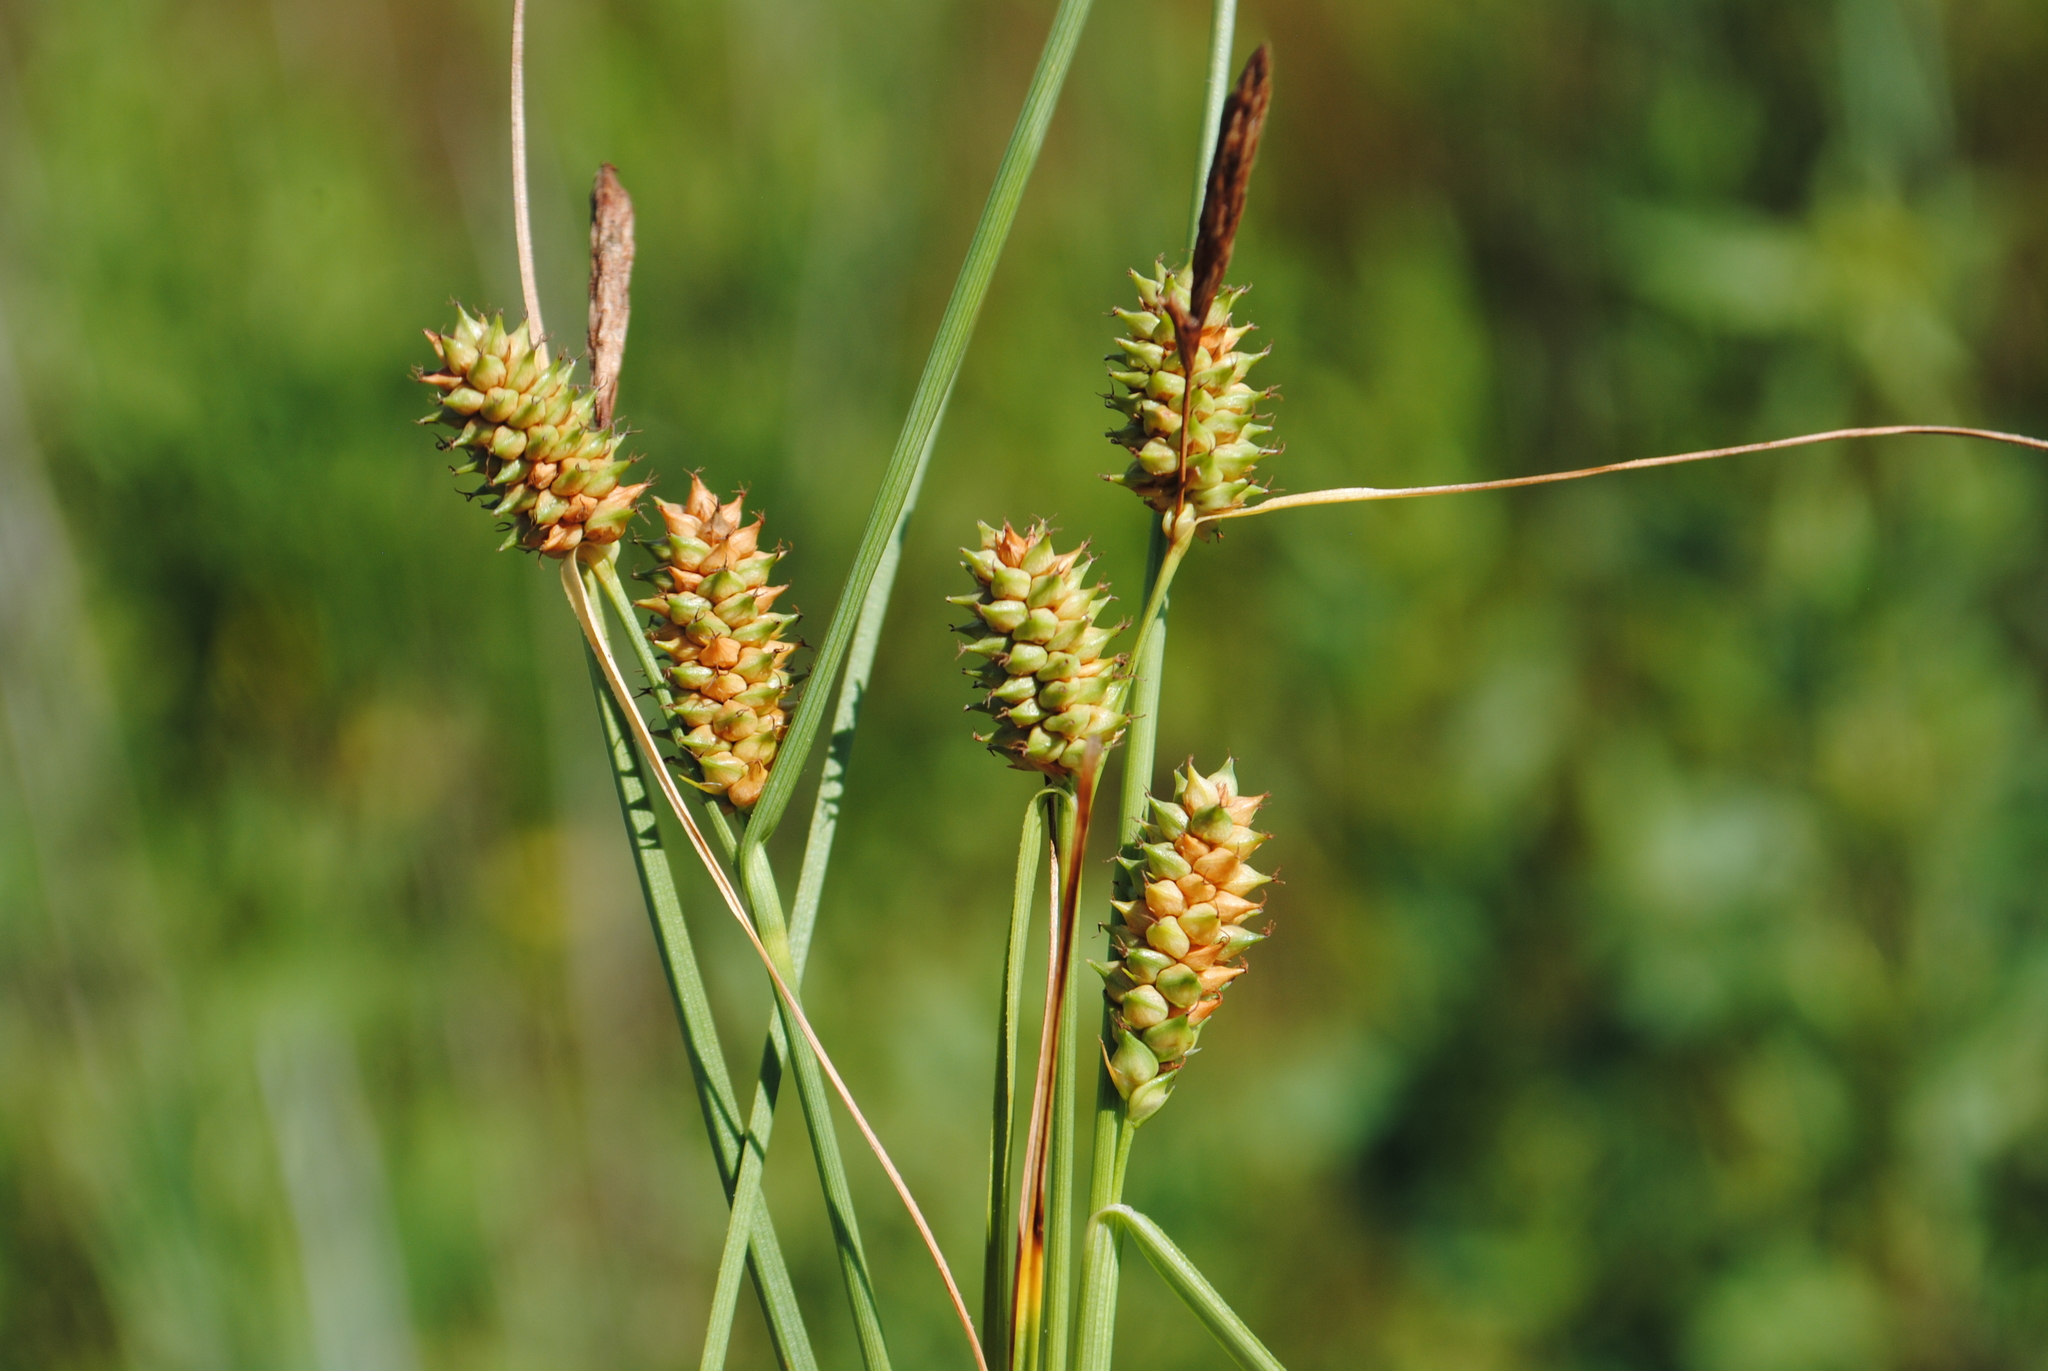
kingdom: Plantae
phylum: Tracheophyta
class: Liliopsida
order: Poales
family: Cyperaceae
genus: Carex
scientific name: Carex extensa
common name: Long-bracted sedge
